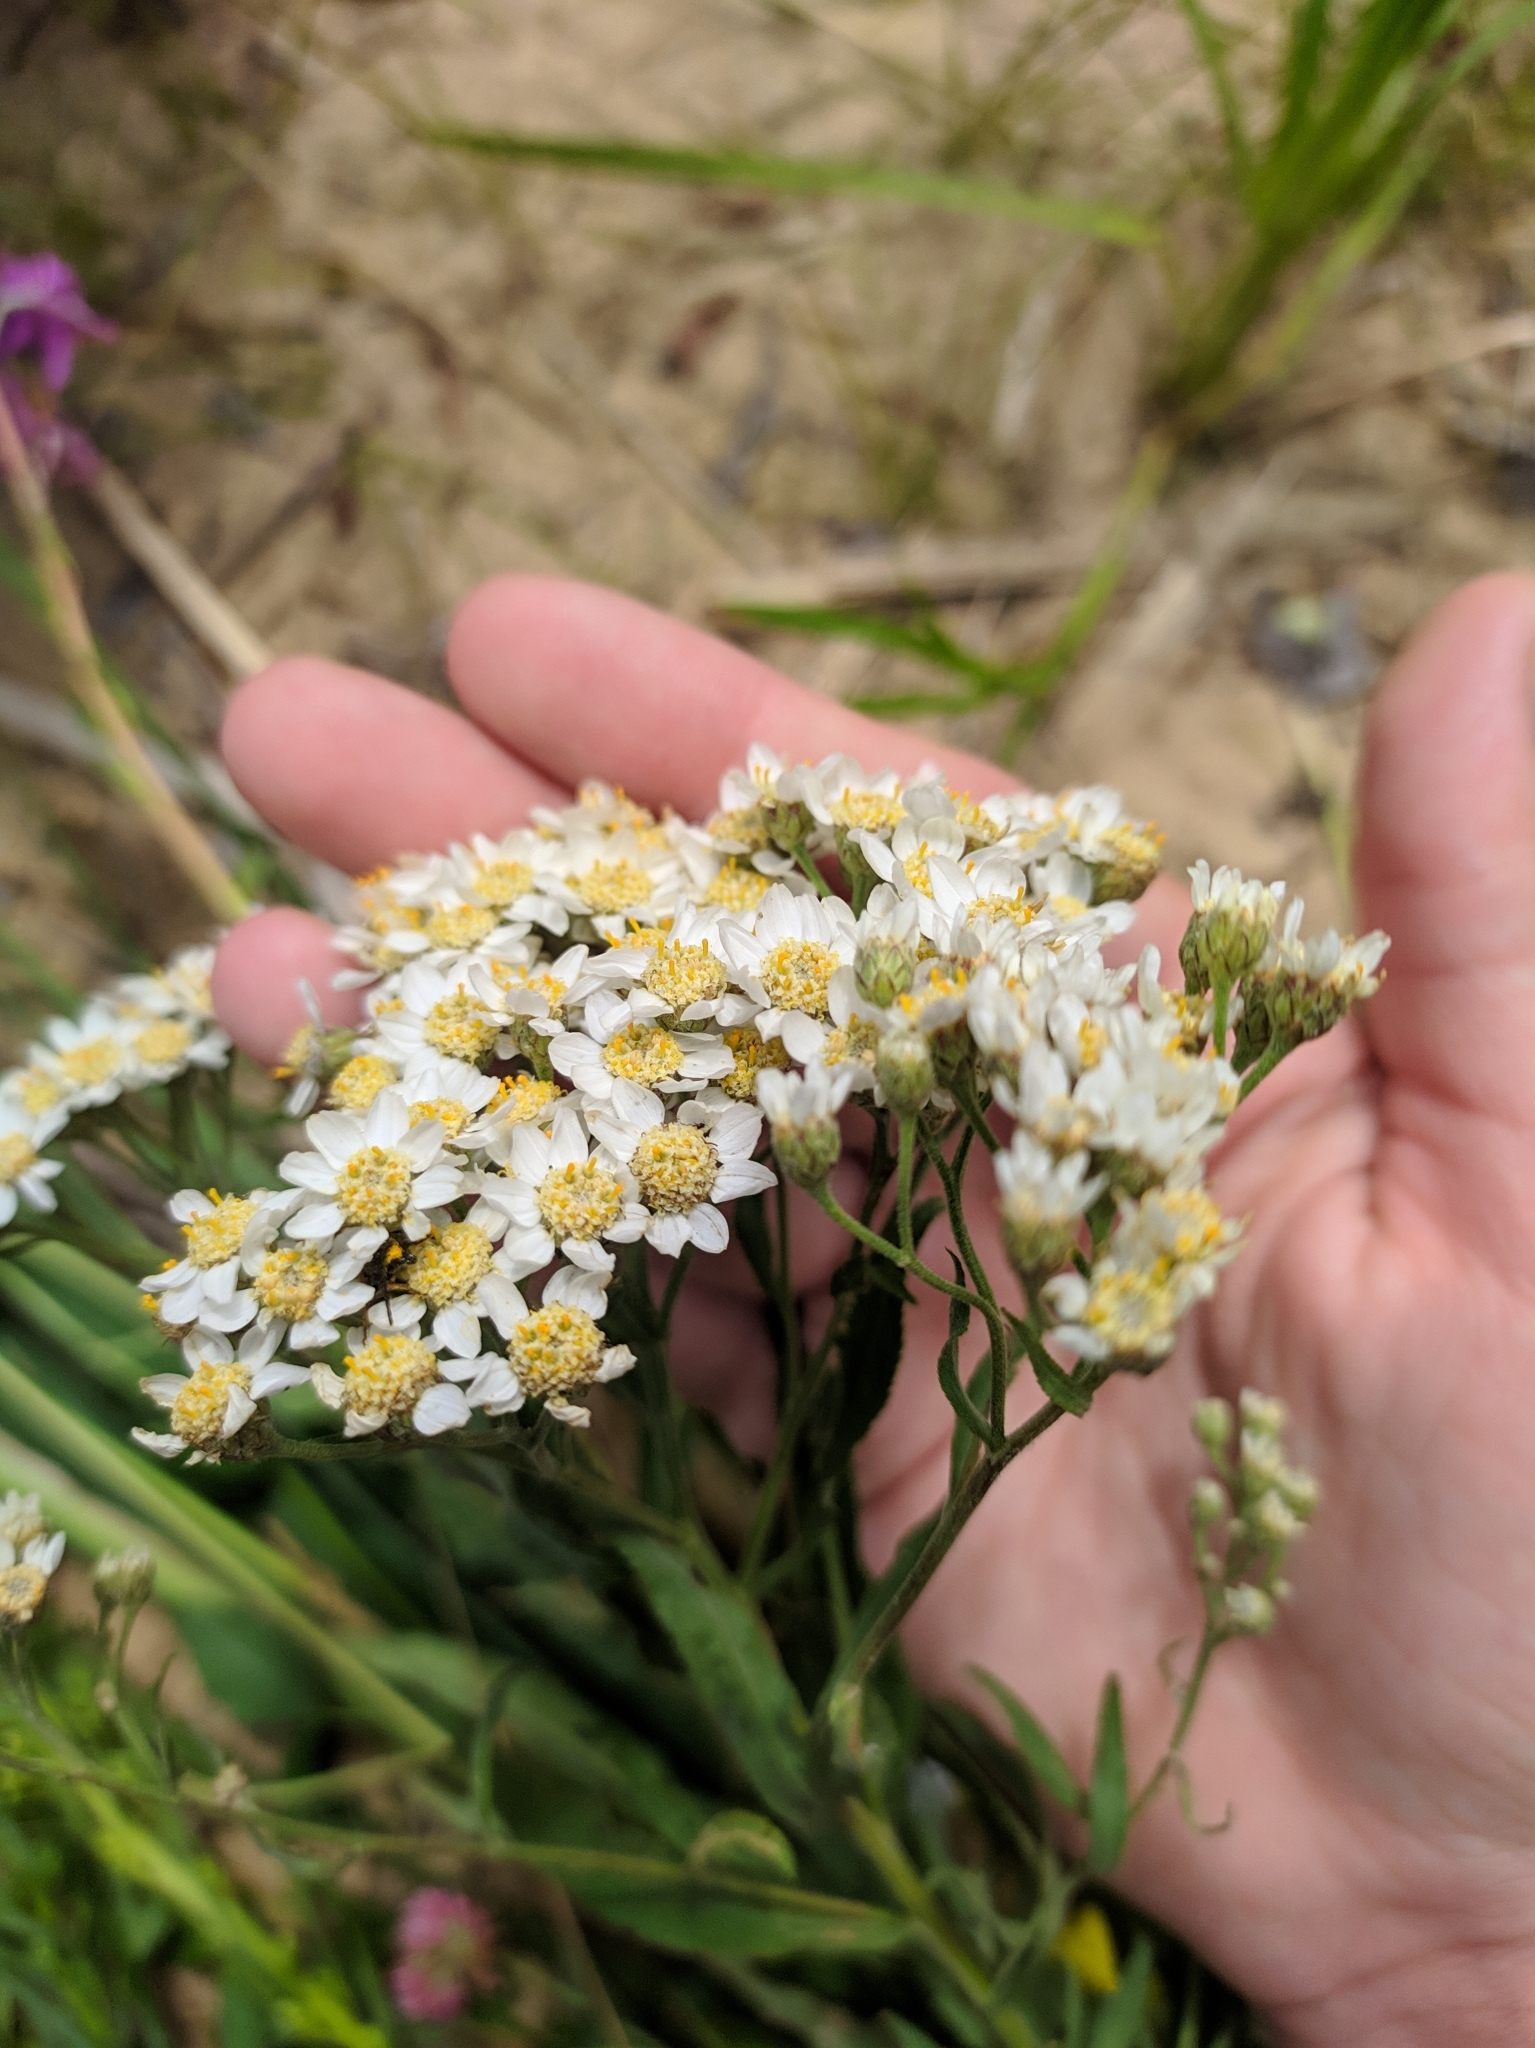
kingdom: Plantae
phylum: Tracheophyta
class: Magnoliopsida
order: Asterales
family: Asteraceae
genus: Achillea
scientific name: Achillea salicifolia
